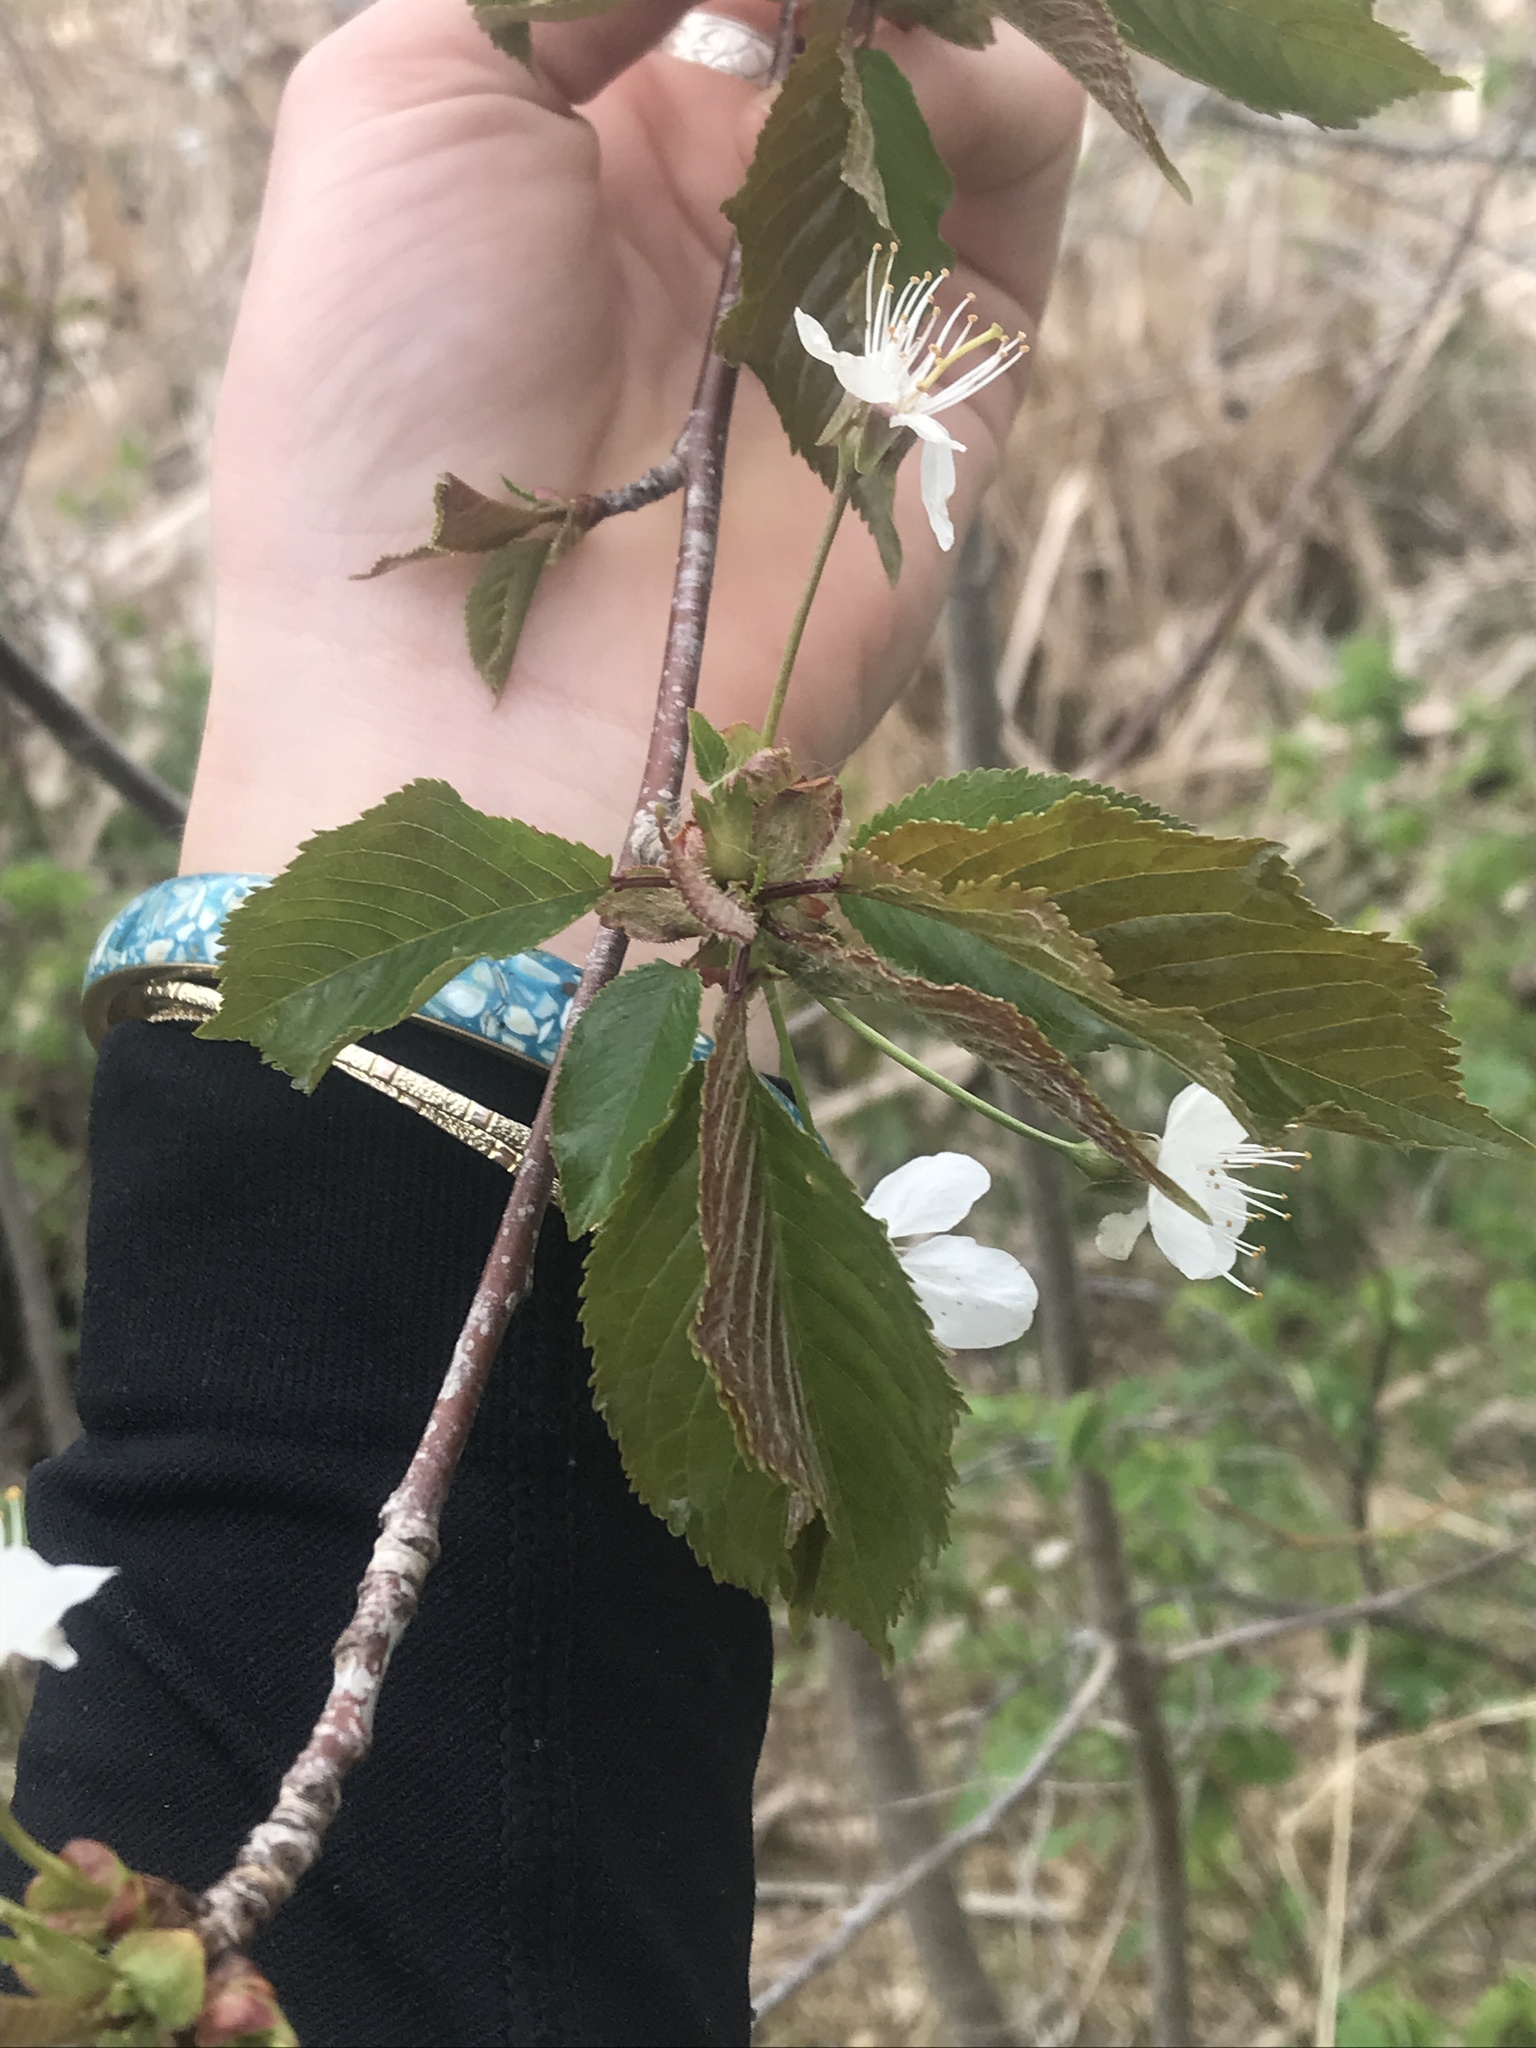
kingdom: Plantae
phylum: Tracheophyta
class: Magnoliopsida
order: Rosales
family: Rosaceae
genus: Prunus
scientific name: Prunus avium
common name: Sweet cherry
